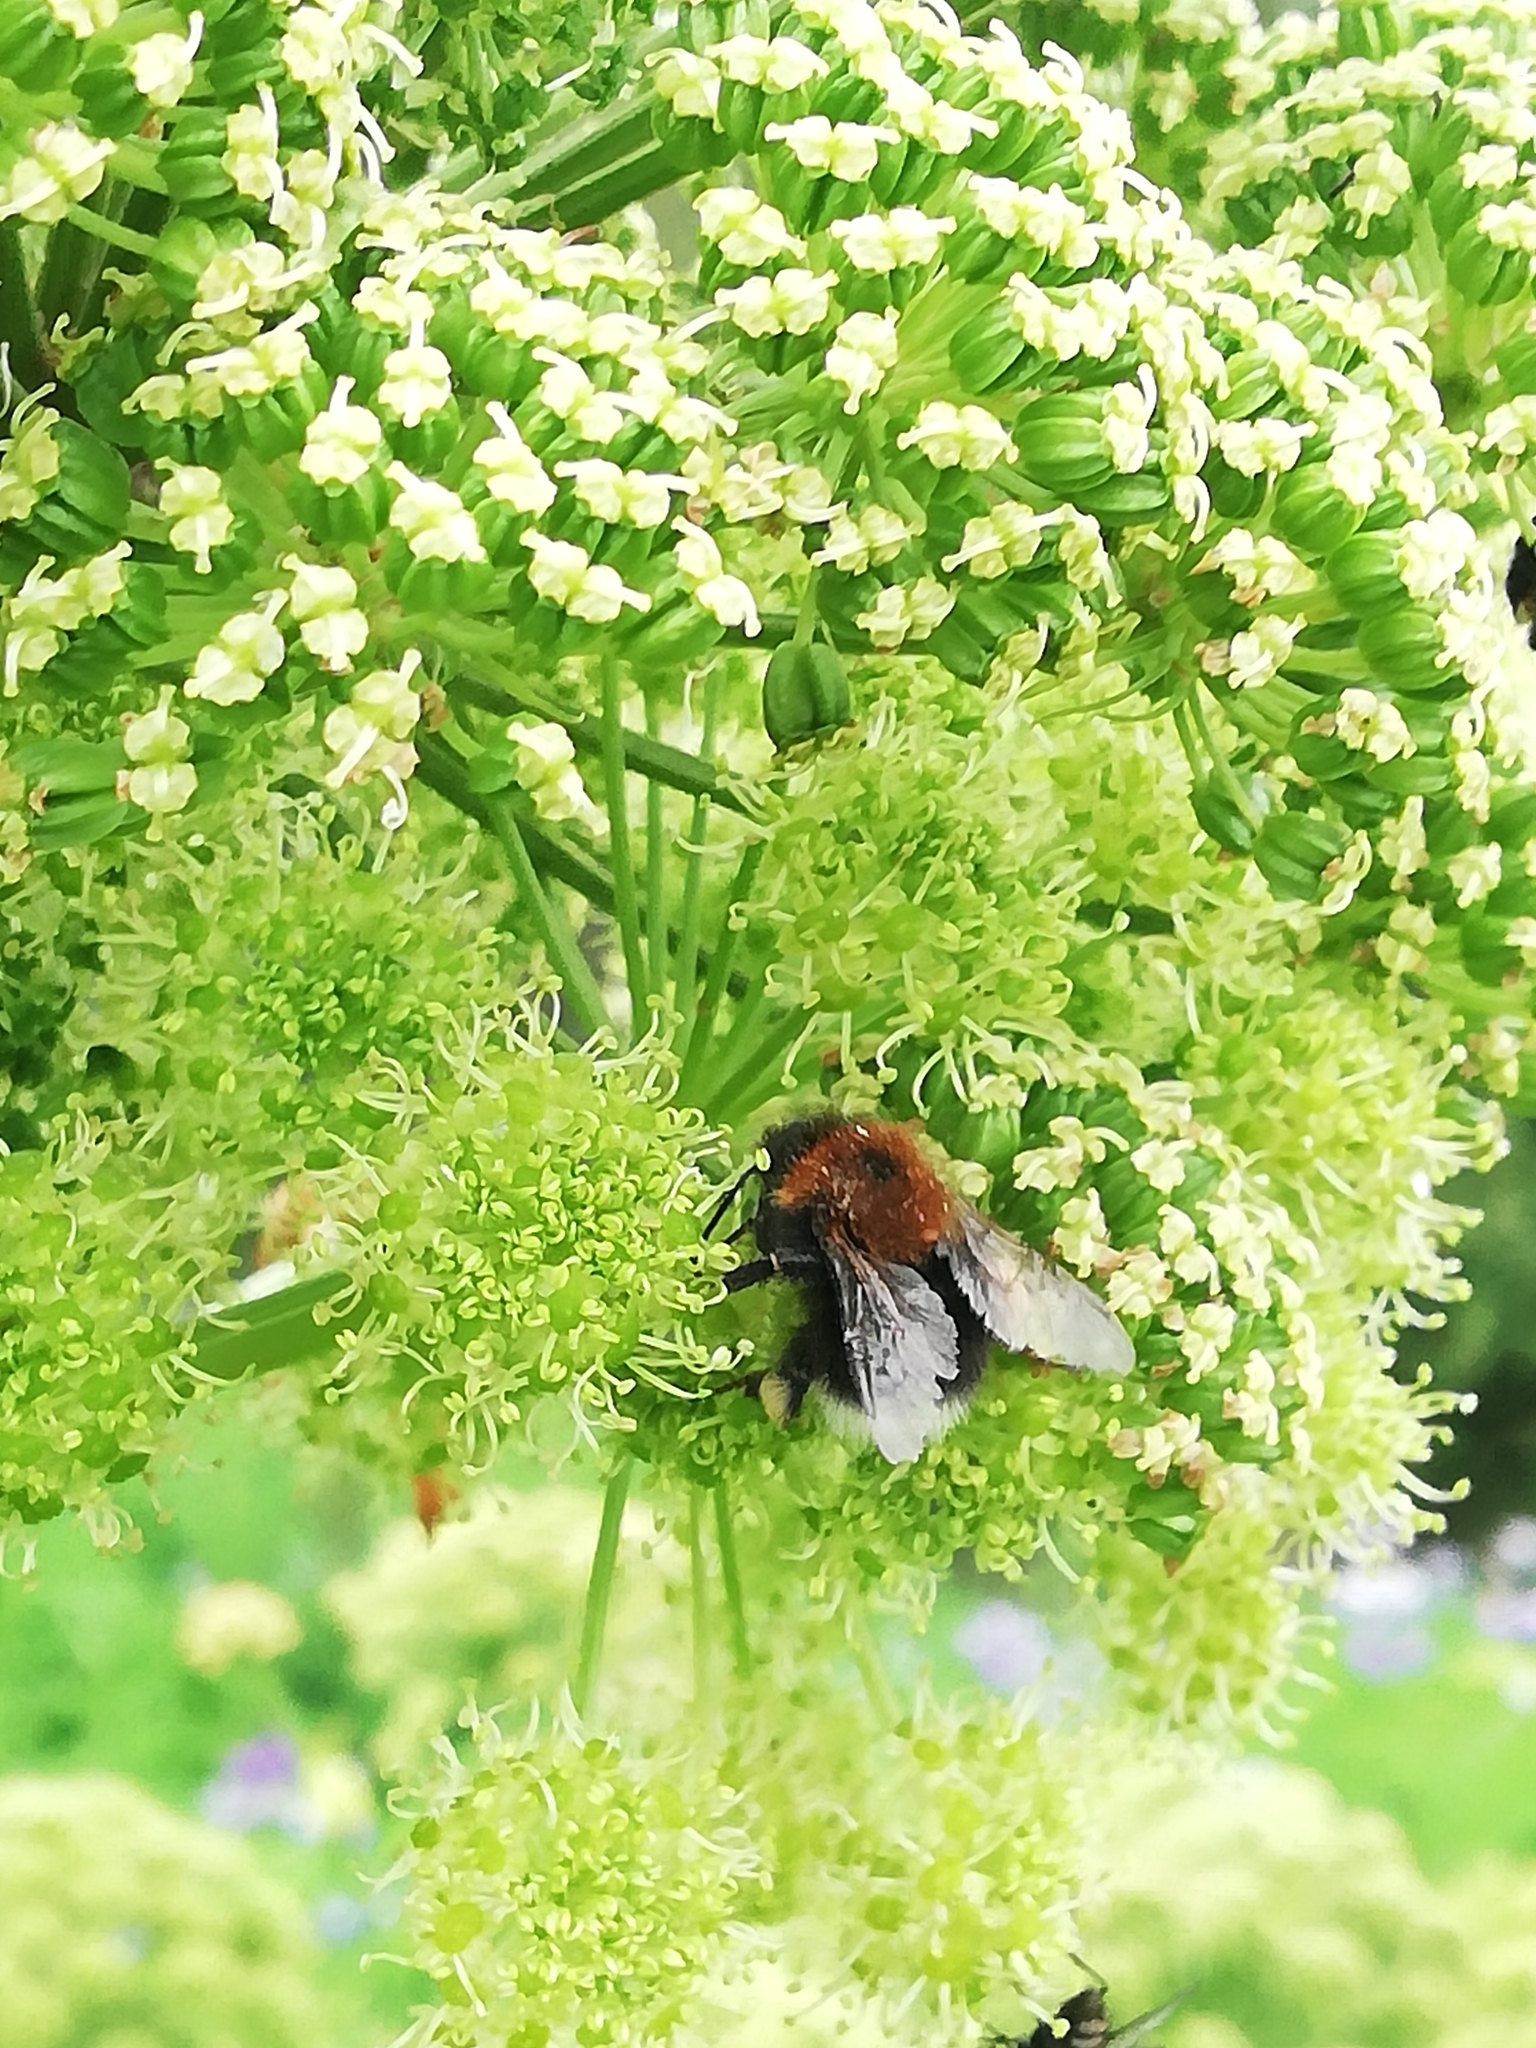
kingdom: Animalia
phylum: Arthropoda
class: Insecta
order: Hymenoptera
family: Apidae
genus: Bombus
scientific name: Bombus hypnorum
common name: New garden bumblebee
